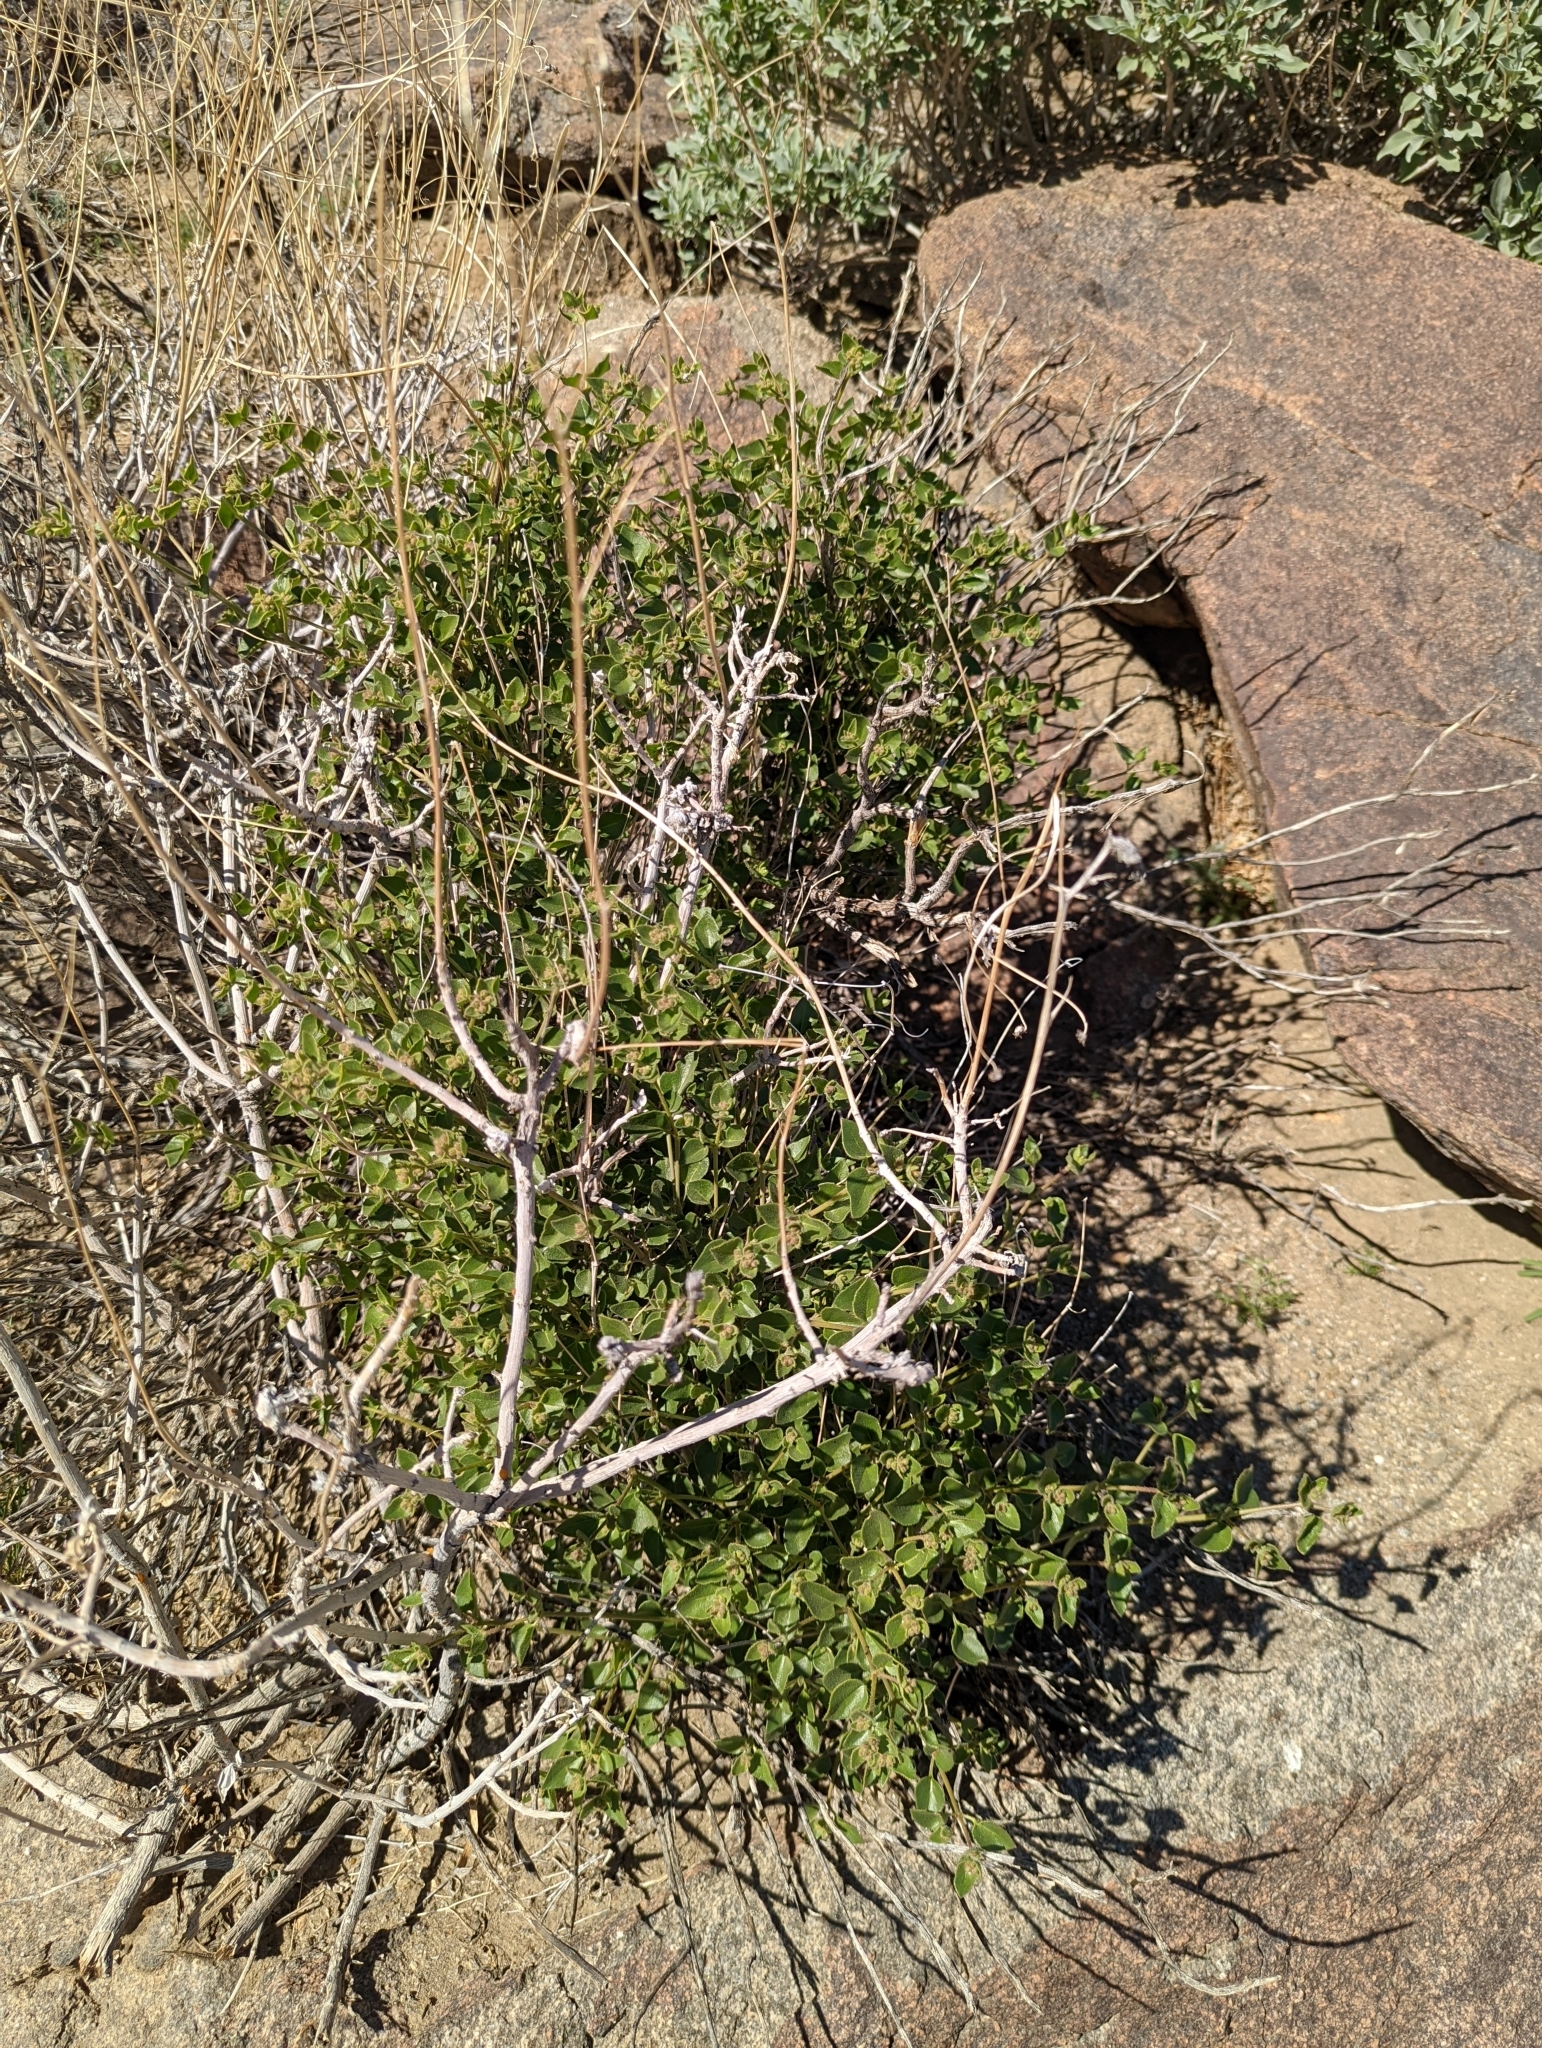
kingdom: Plantae
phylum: Tracheophyta
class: Magnoliopsida
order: Caryophyllales
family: Nyctaginaceae
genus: Mirabilis
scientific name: Mirabilis laevis
